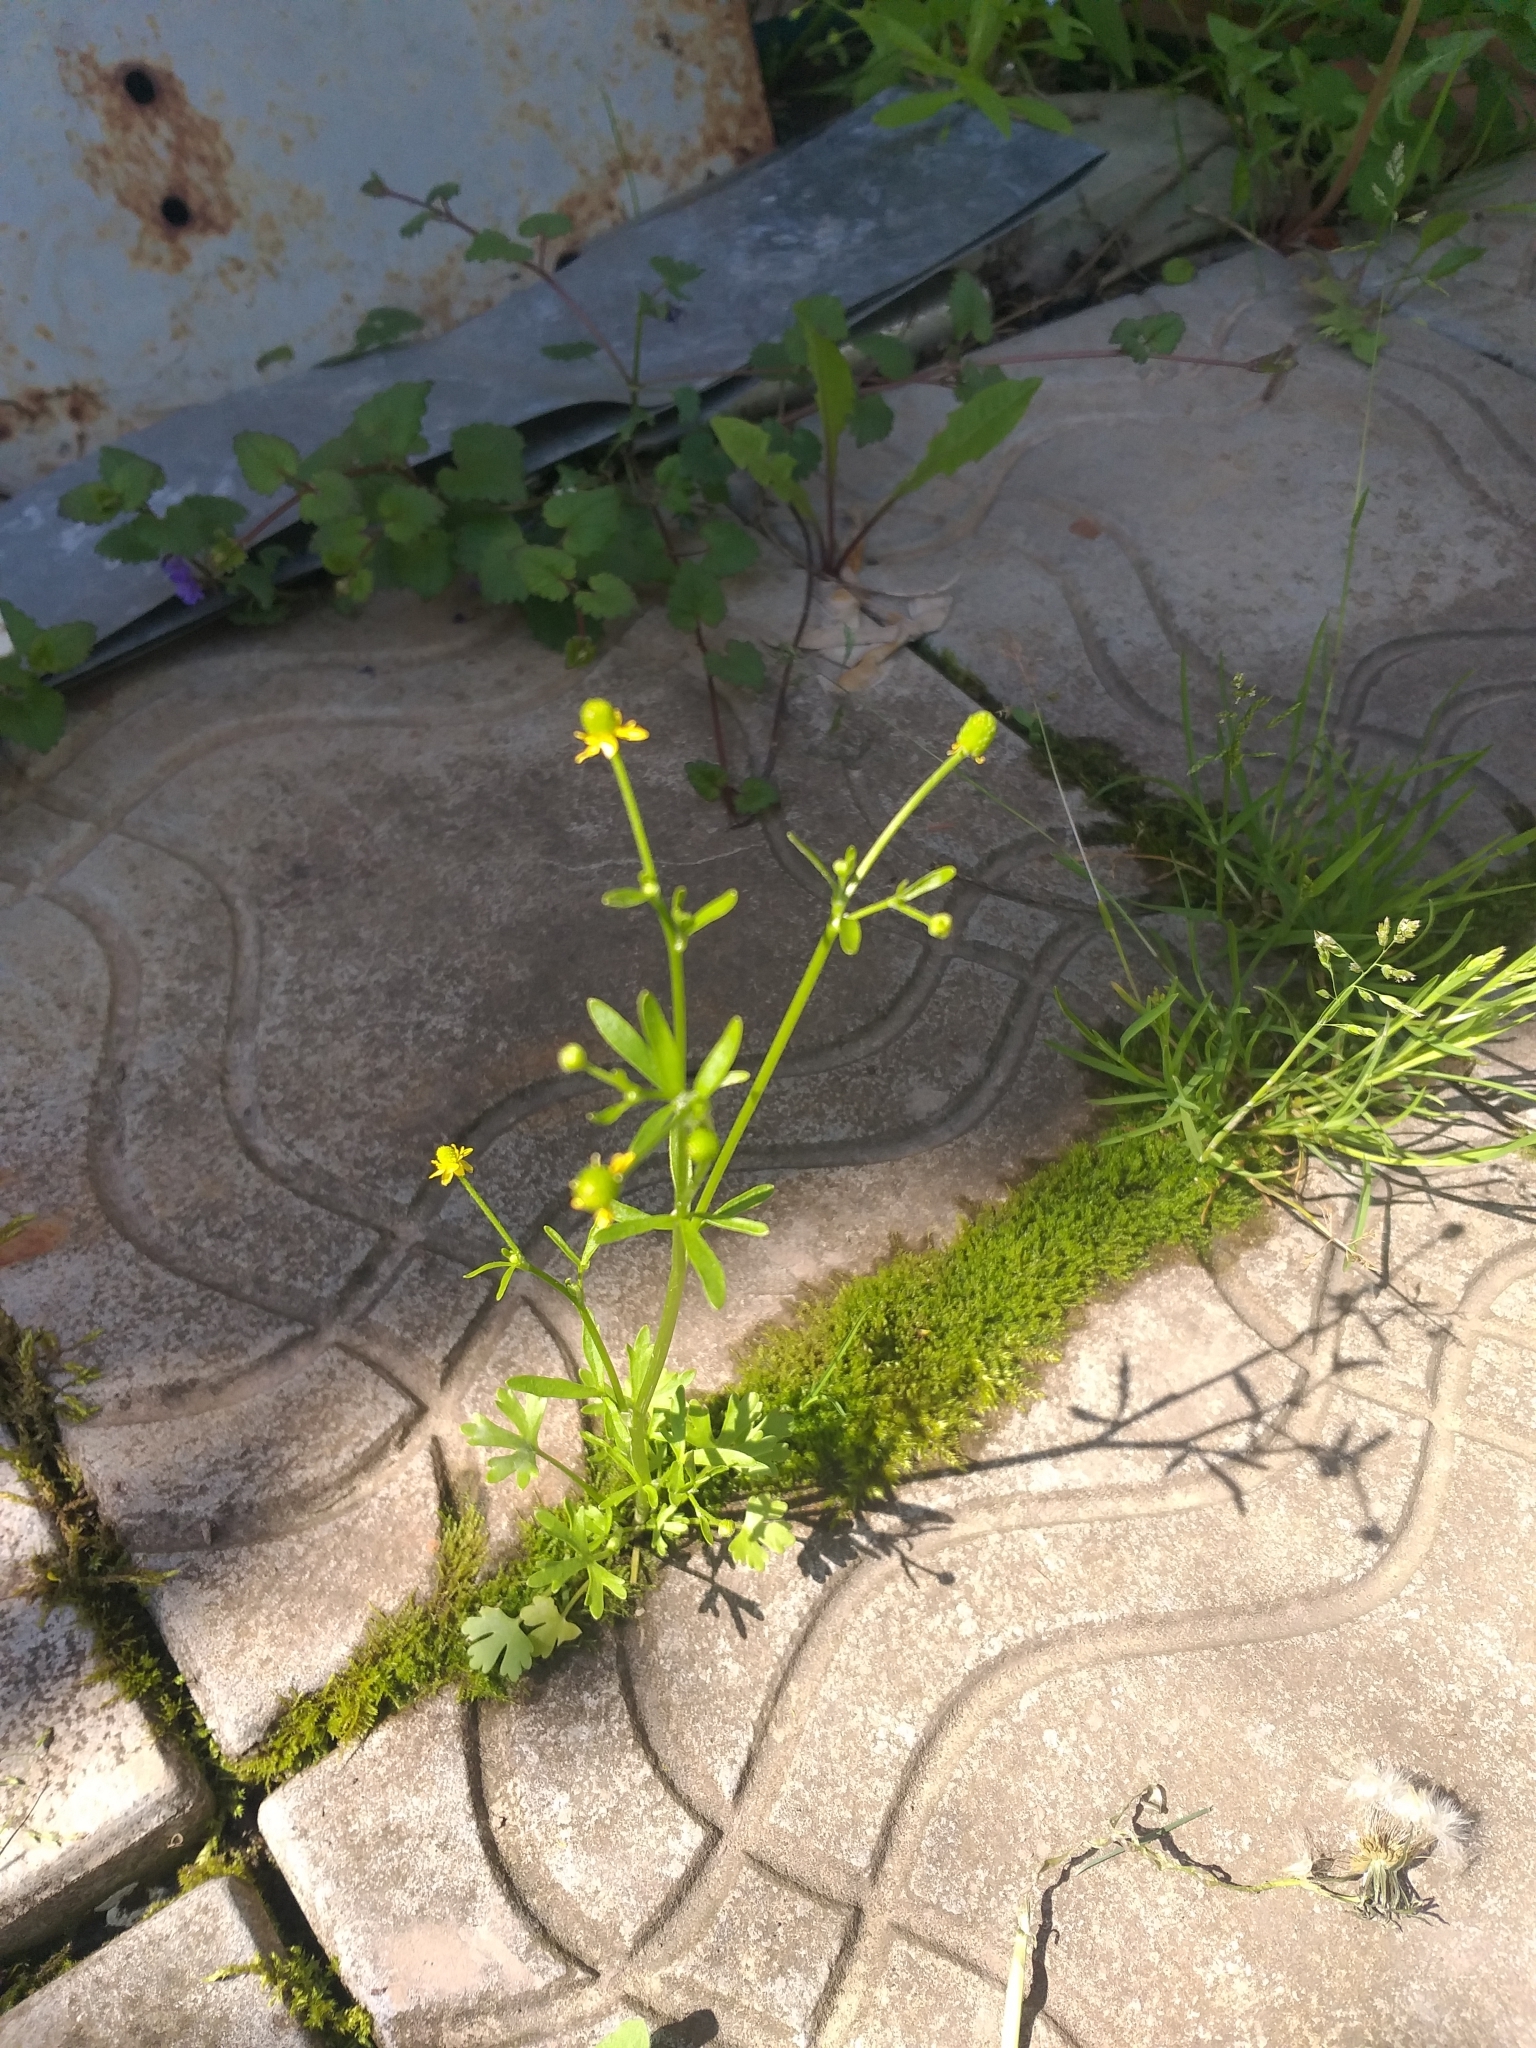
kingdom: Plantae
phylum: Tracheophyta
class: Magnoliopsida
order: Ranunculales
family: Ranunculaceae
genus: Ranunculus
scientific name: Ranunculus sceleratus
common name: Celery-leaved buttercup
